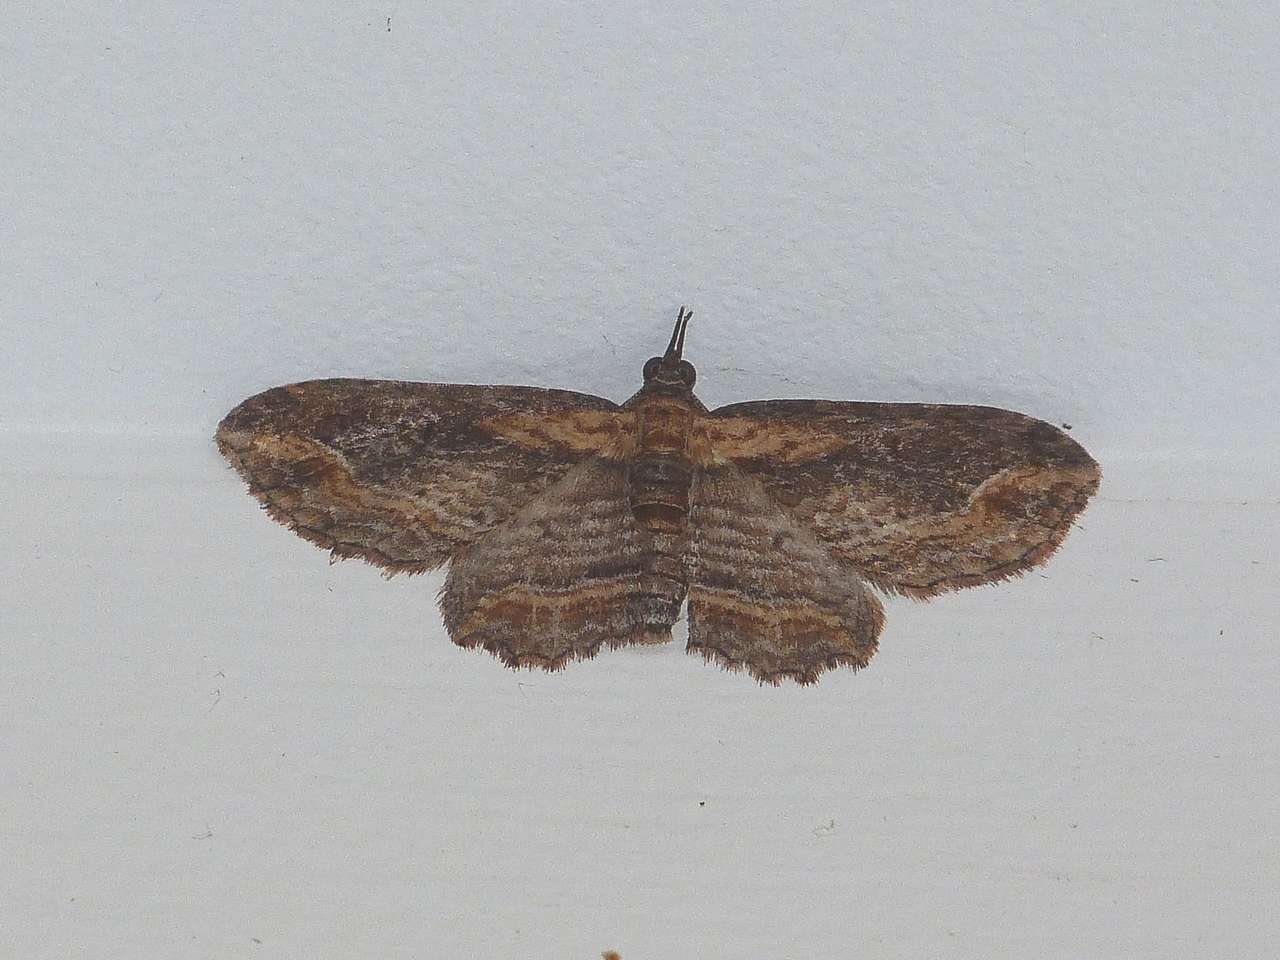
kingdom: Animalia
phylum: Arthropoda
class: Insecta
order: Lepidoptera
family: Geometridae
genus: Chloroclystis
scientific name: Chloroclystis filata
